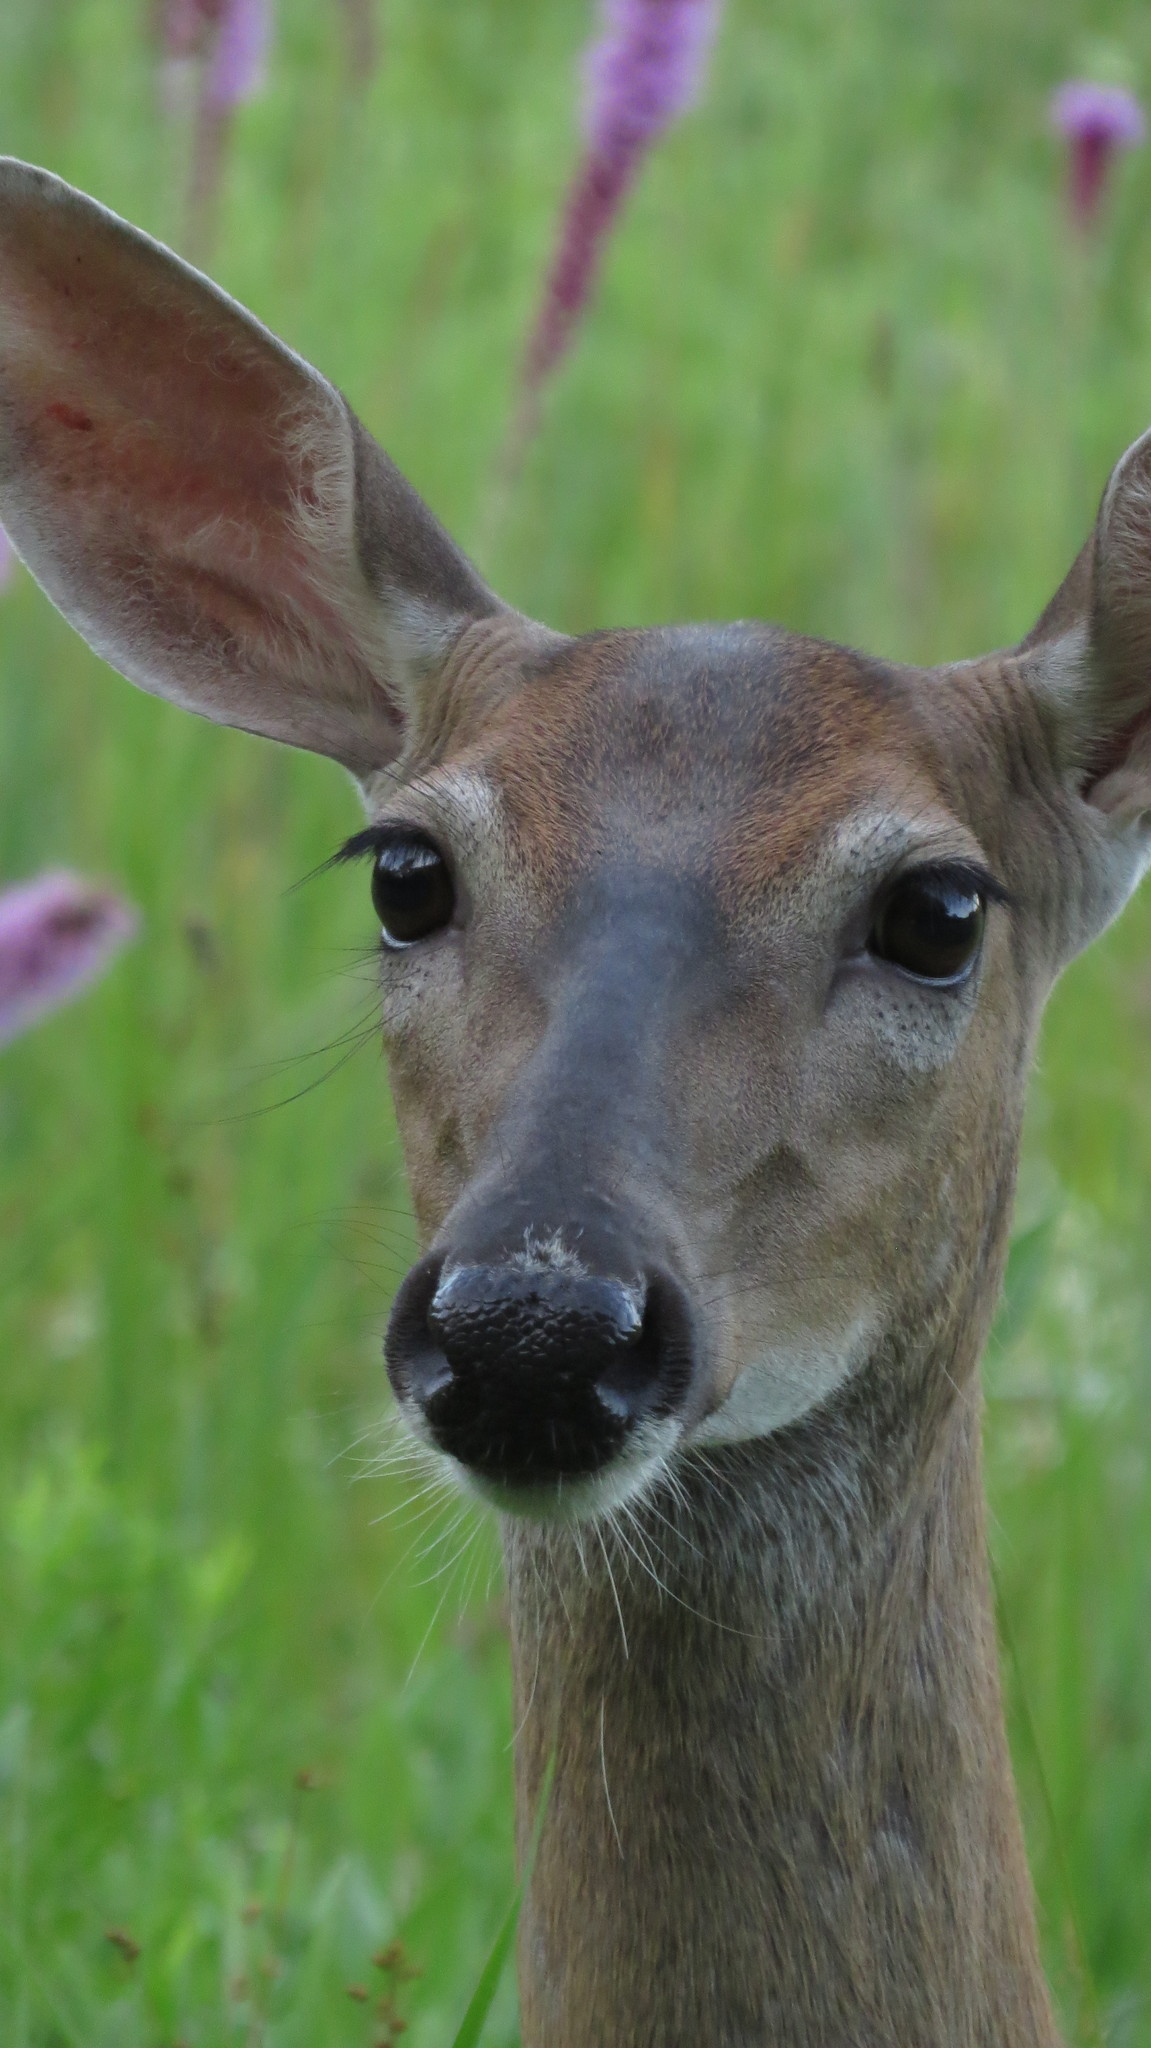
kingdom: Animalia
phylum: Chordata
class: Mammalia
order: Artiodactyla
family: Cervidae
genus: Odocoileus
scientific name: Odocoileus virginianus
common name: White-tailed deer
